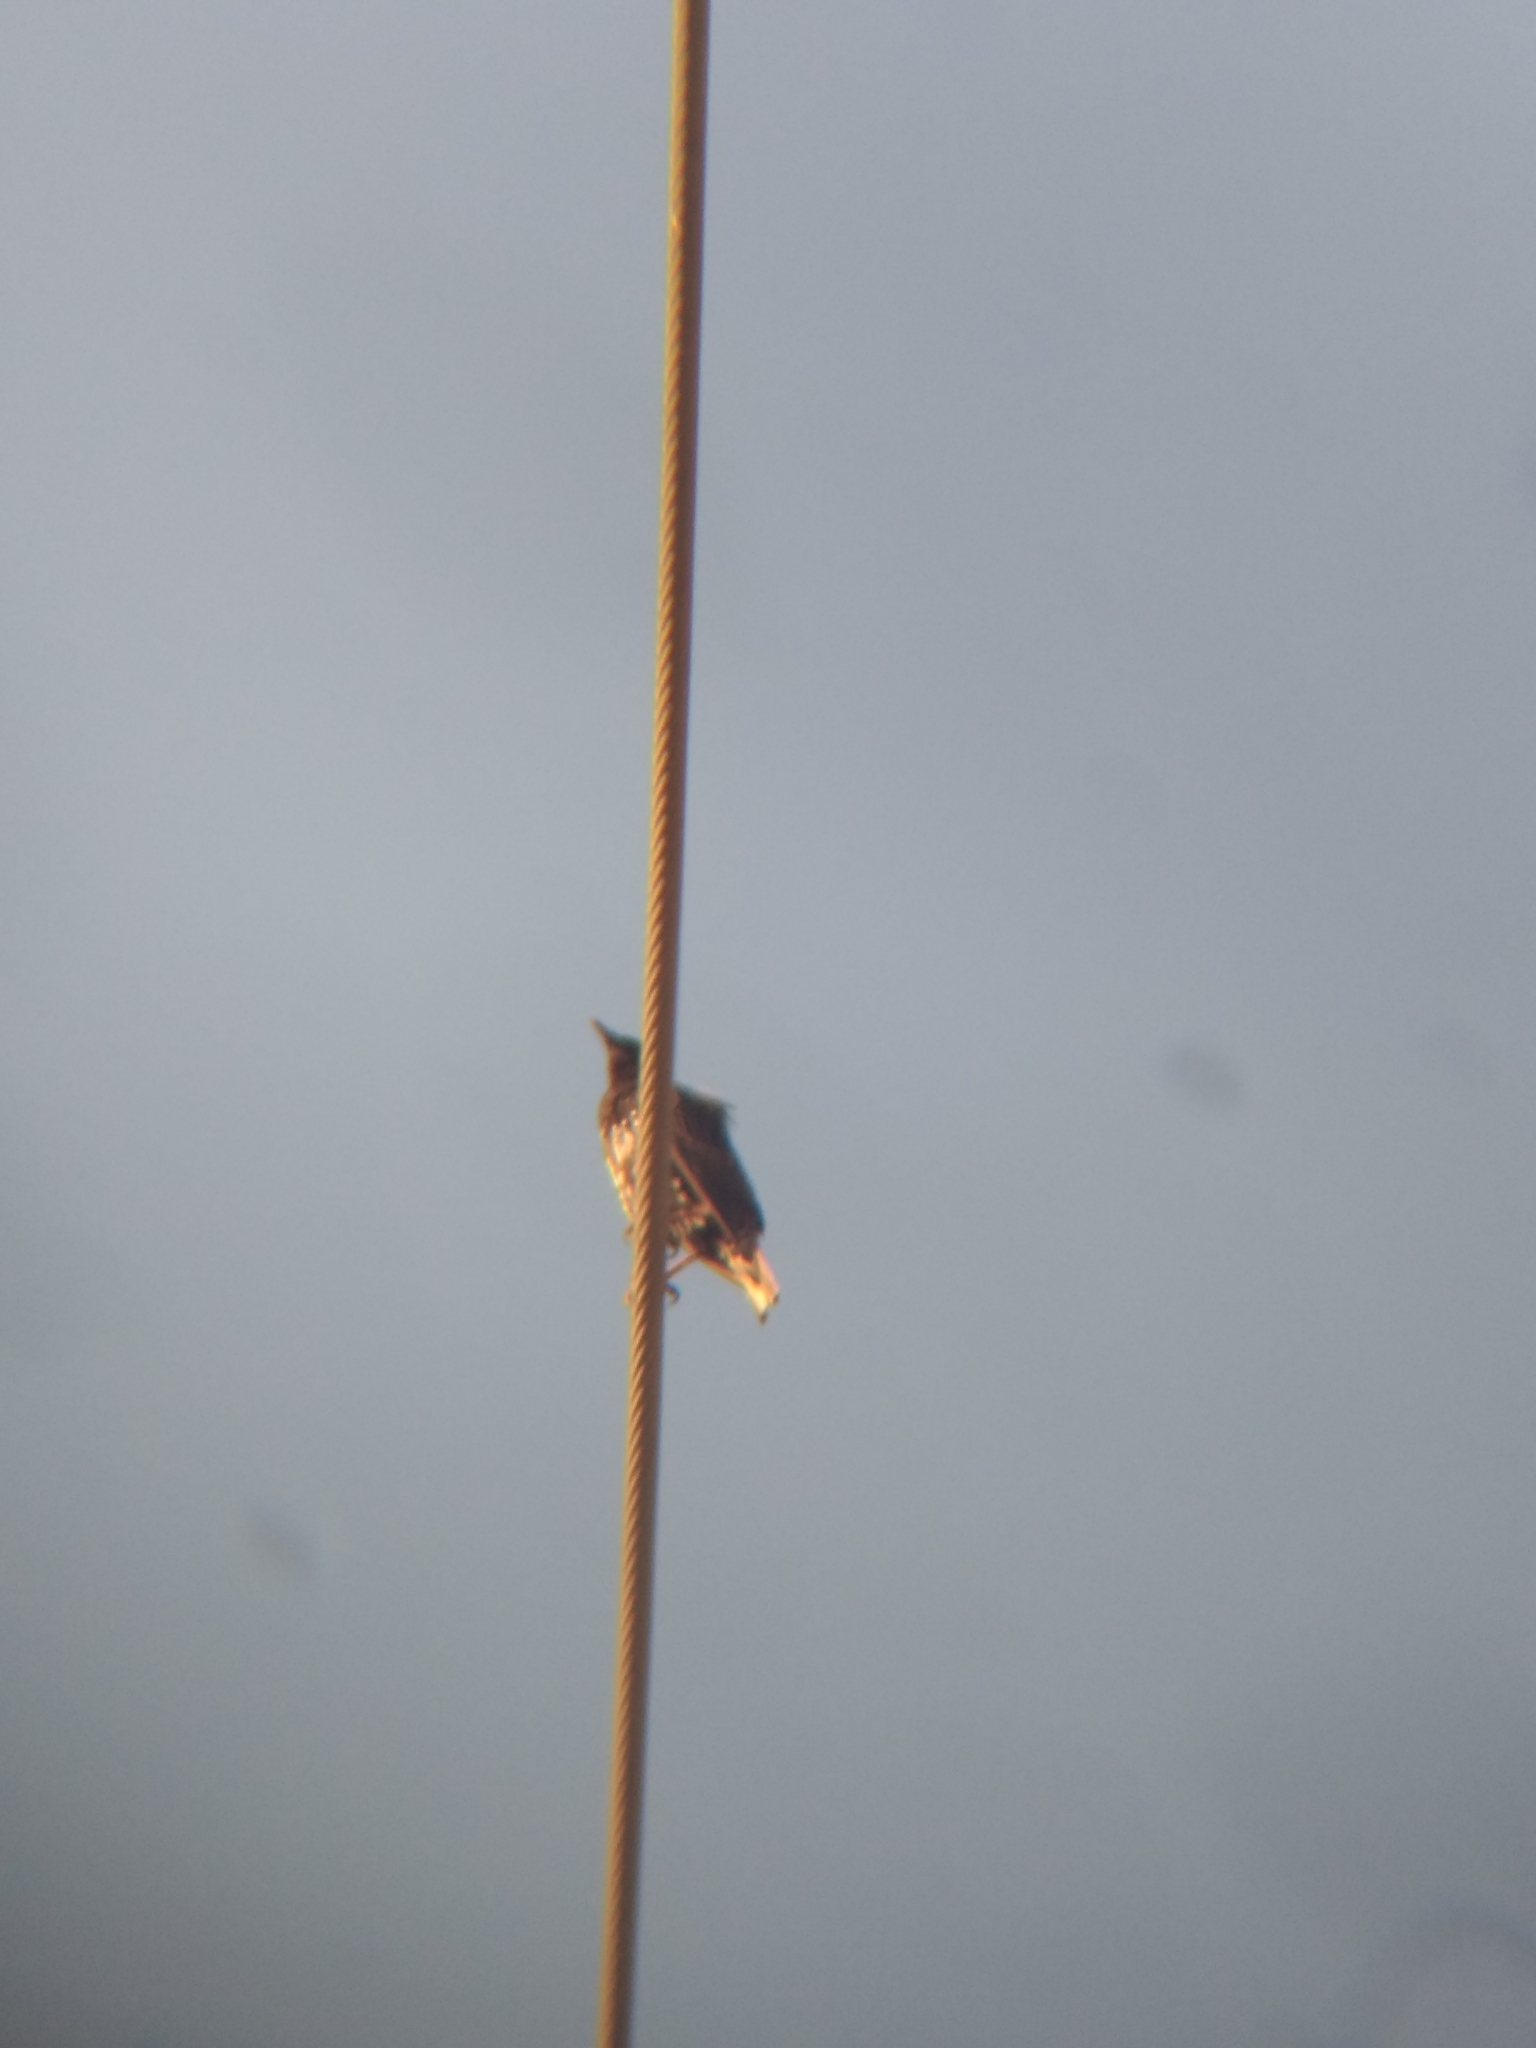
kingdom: Animalia
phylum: Chordata
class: Aves
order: Passeriformes
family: Sturnidae
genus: Sturnus
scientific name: Sturnus vulgaris
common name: Common starling
